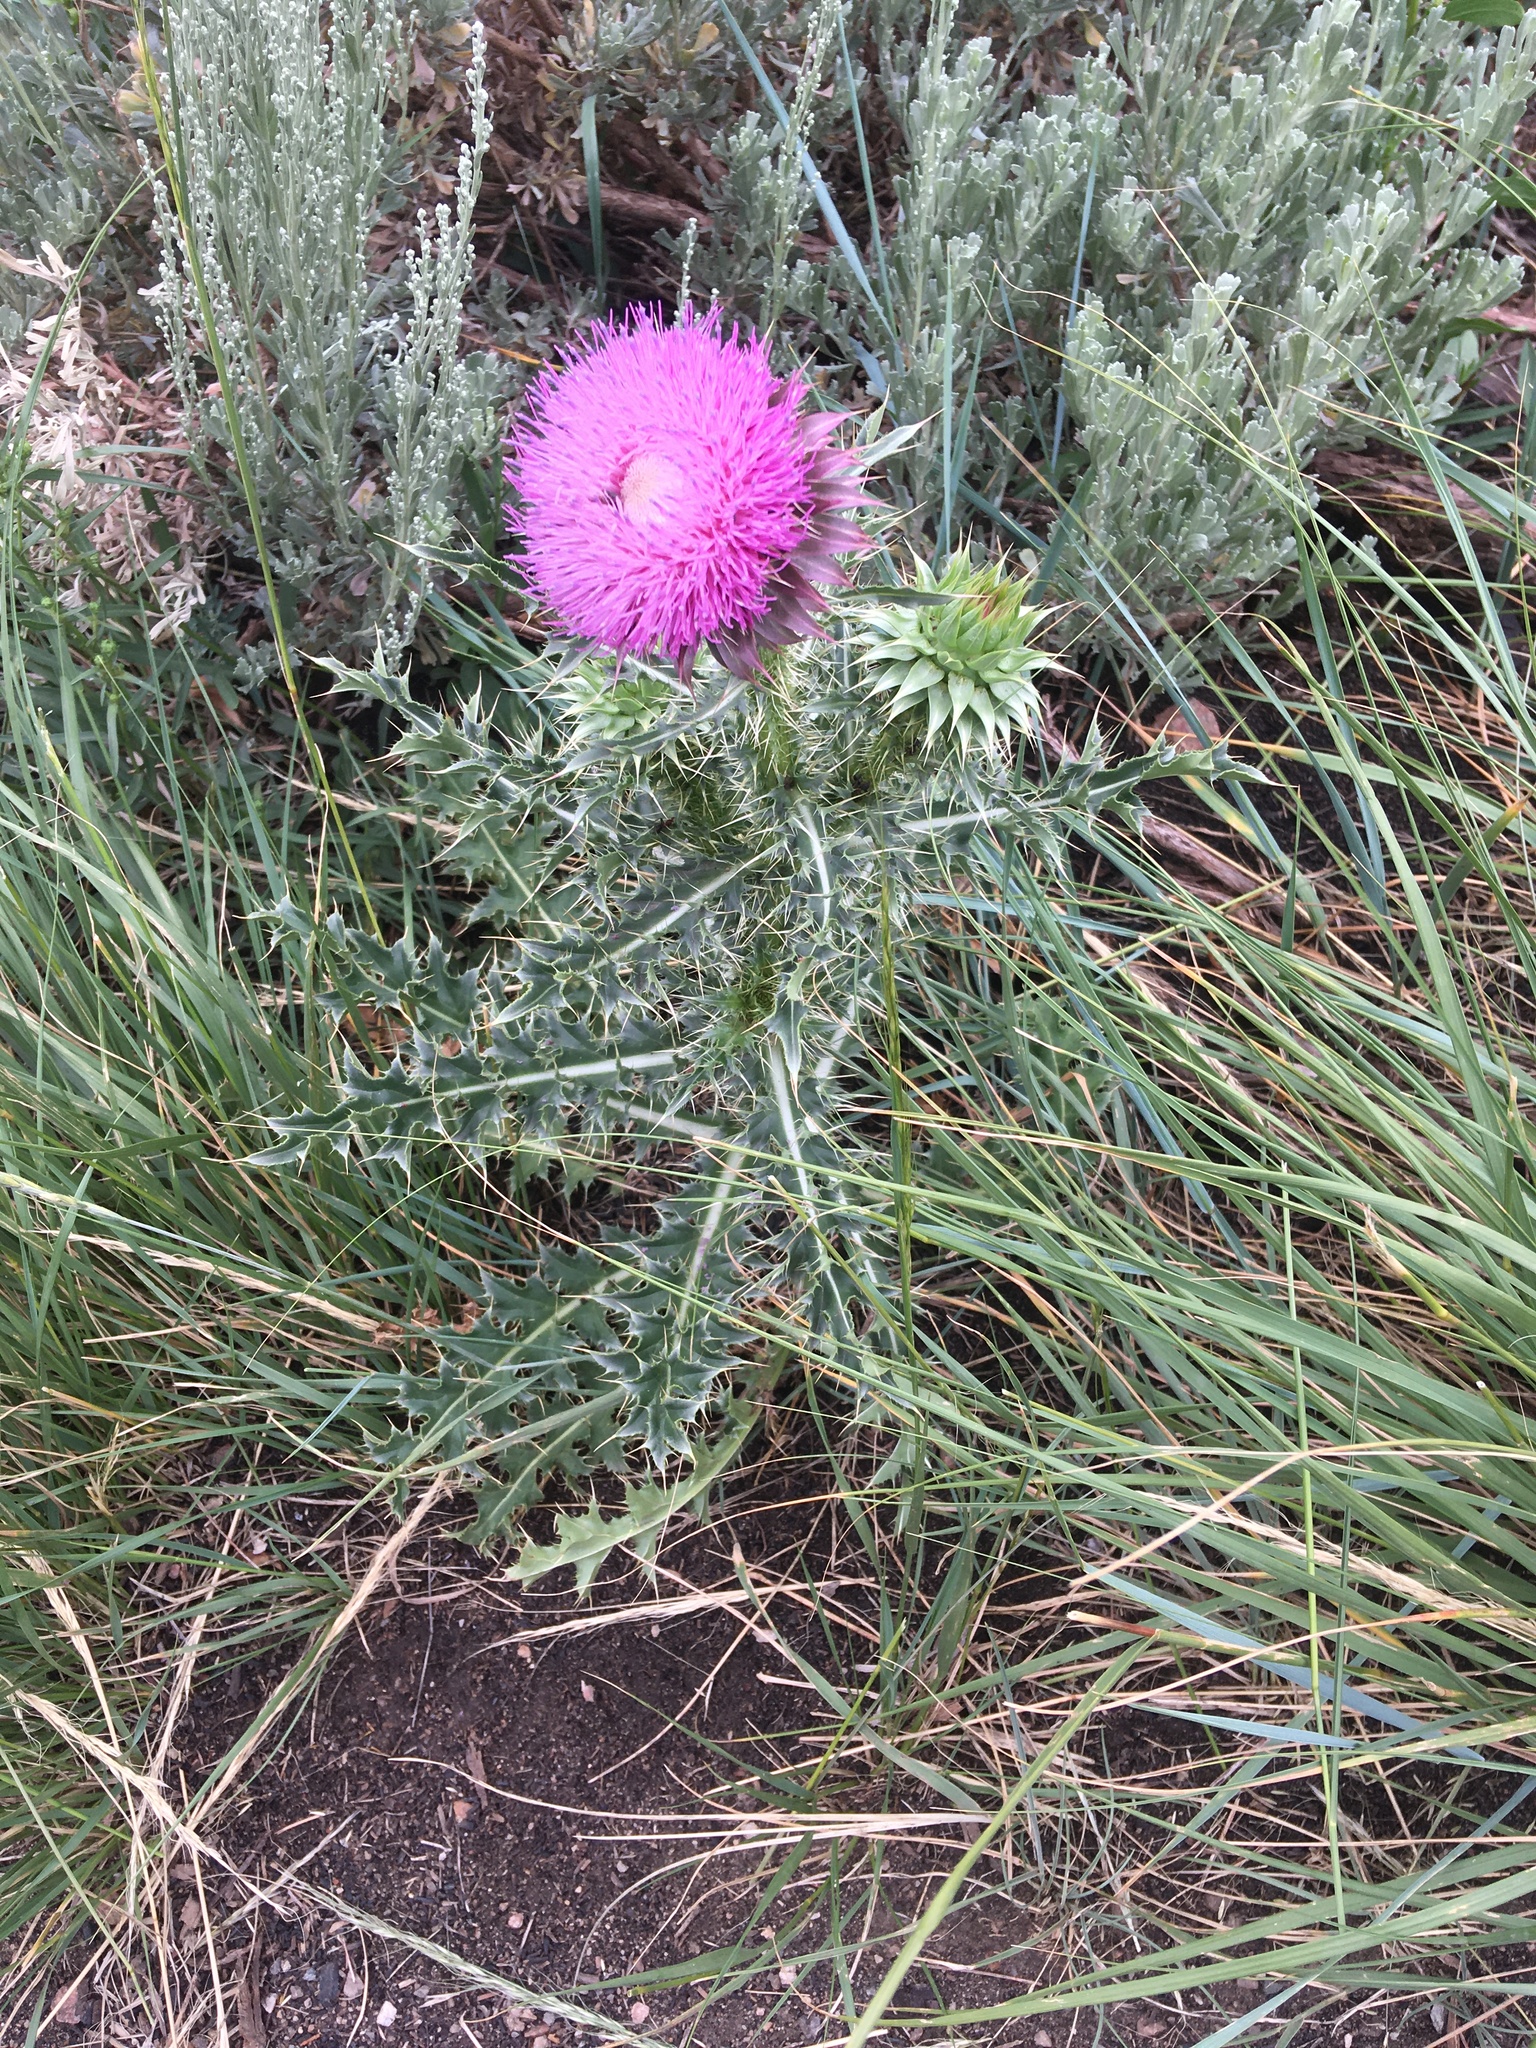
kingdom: Plantae
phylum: Tracheophyta
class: Magnoliopsida
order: Asterales
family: Asteraceae
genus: Carduus
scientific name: Carduus nutans
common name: Musk thistle
